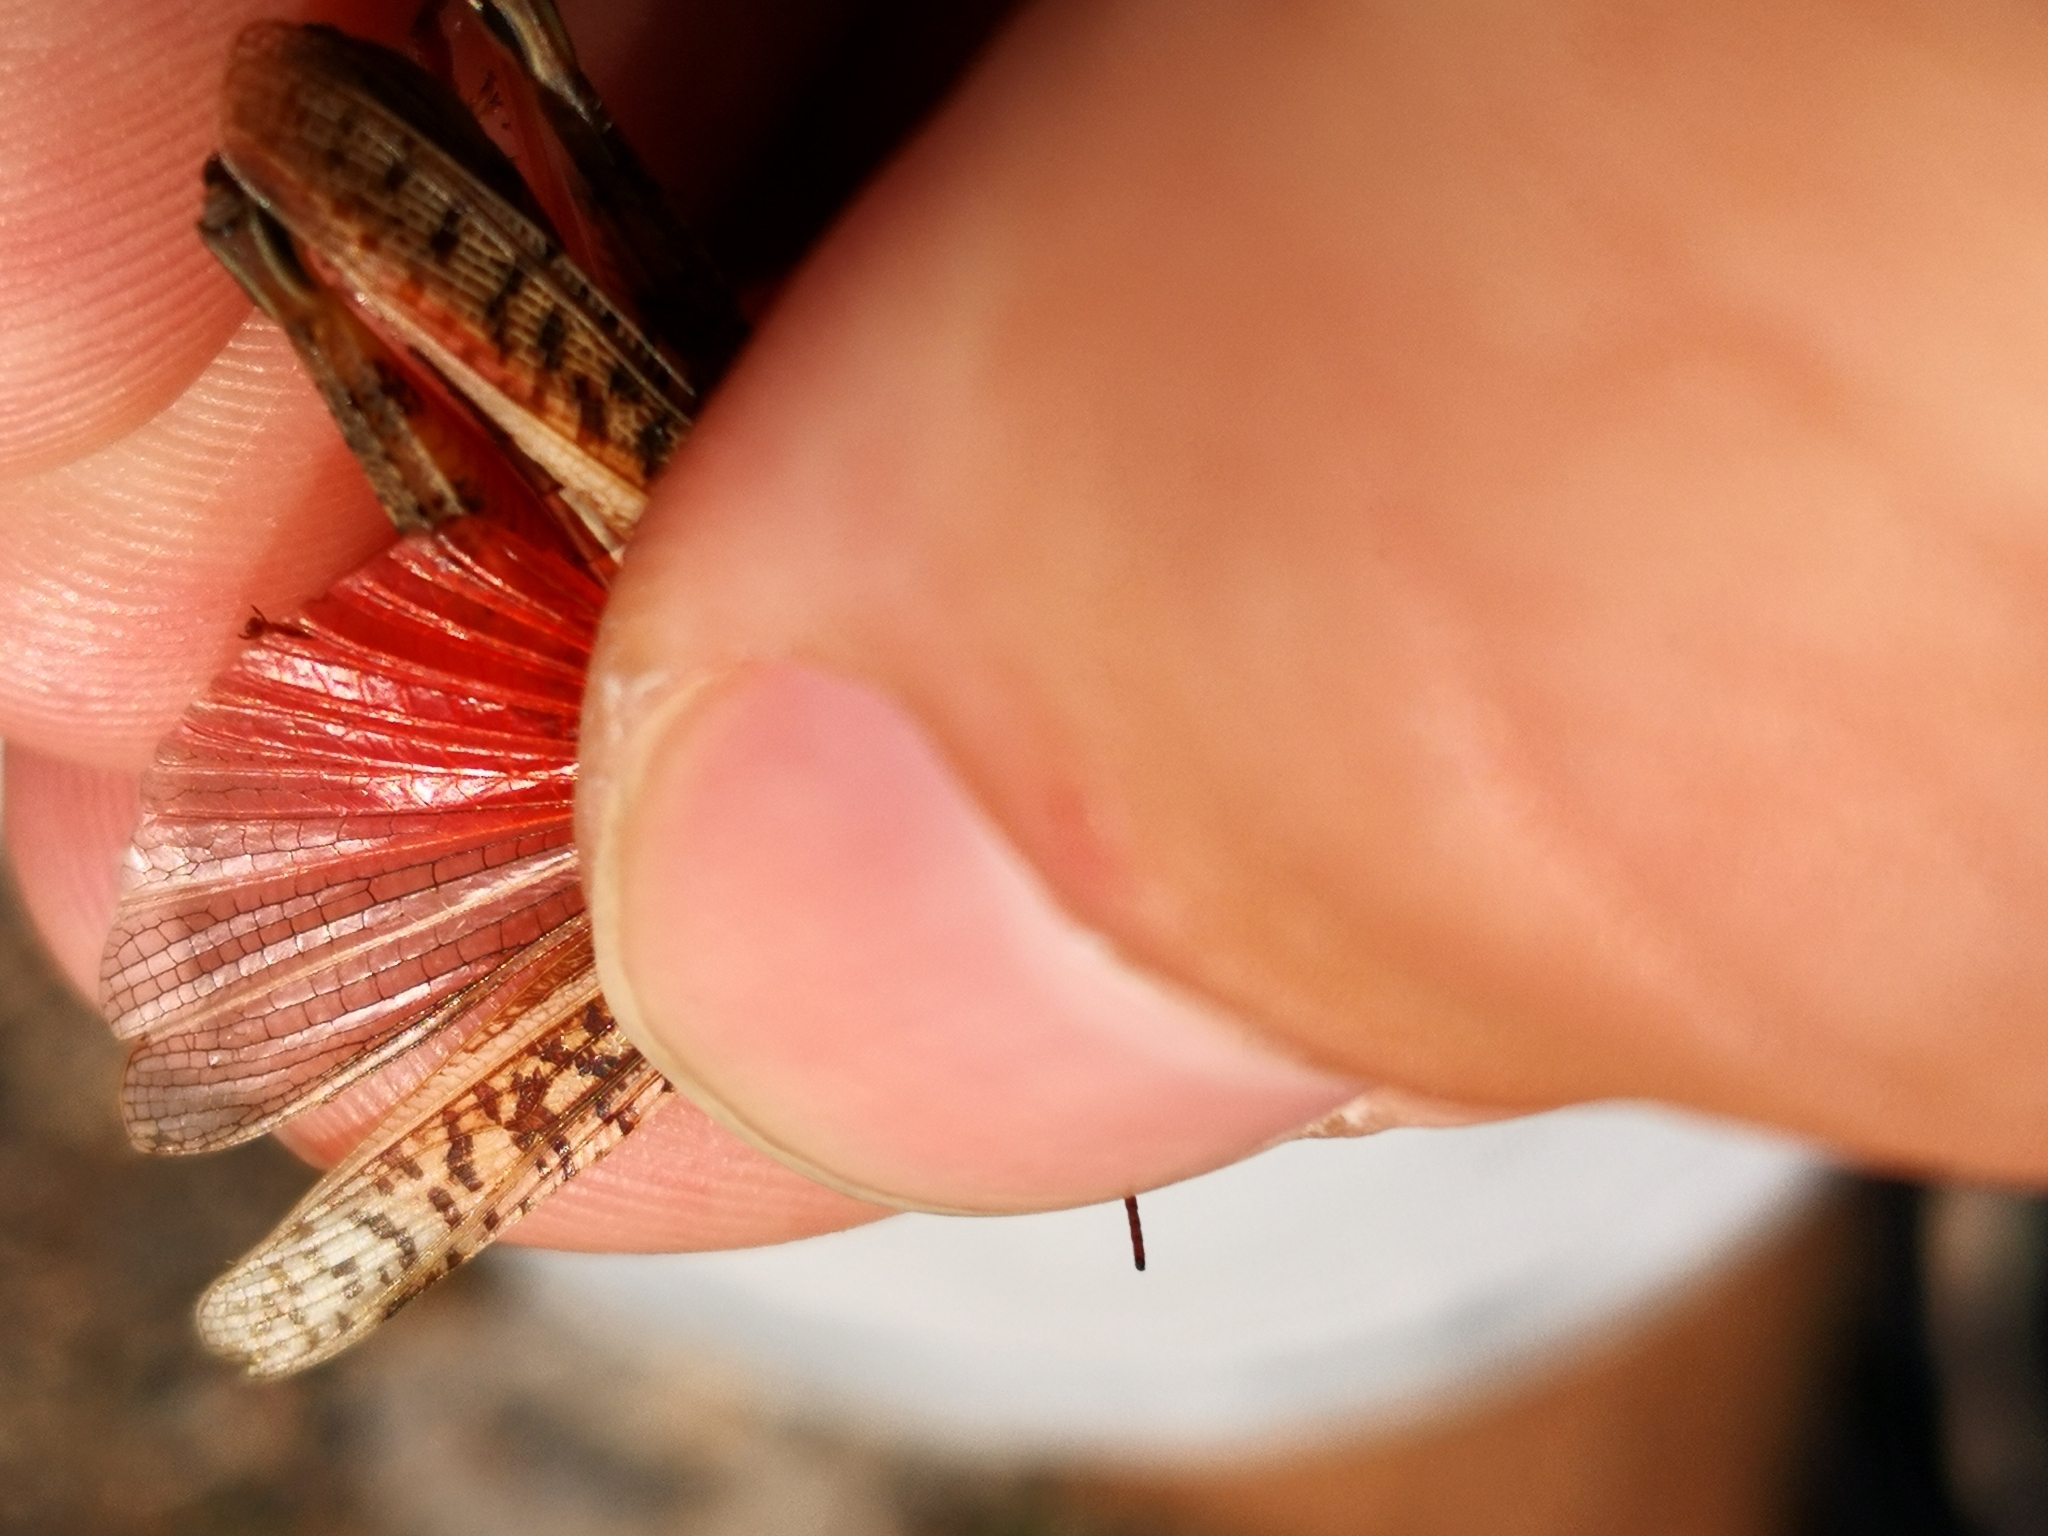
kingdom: Animalia
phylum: Arthropoda
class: Insecta
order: Orthoptera
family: Acrididae
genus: Calliptamus
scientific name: Calliptamus italicus
